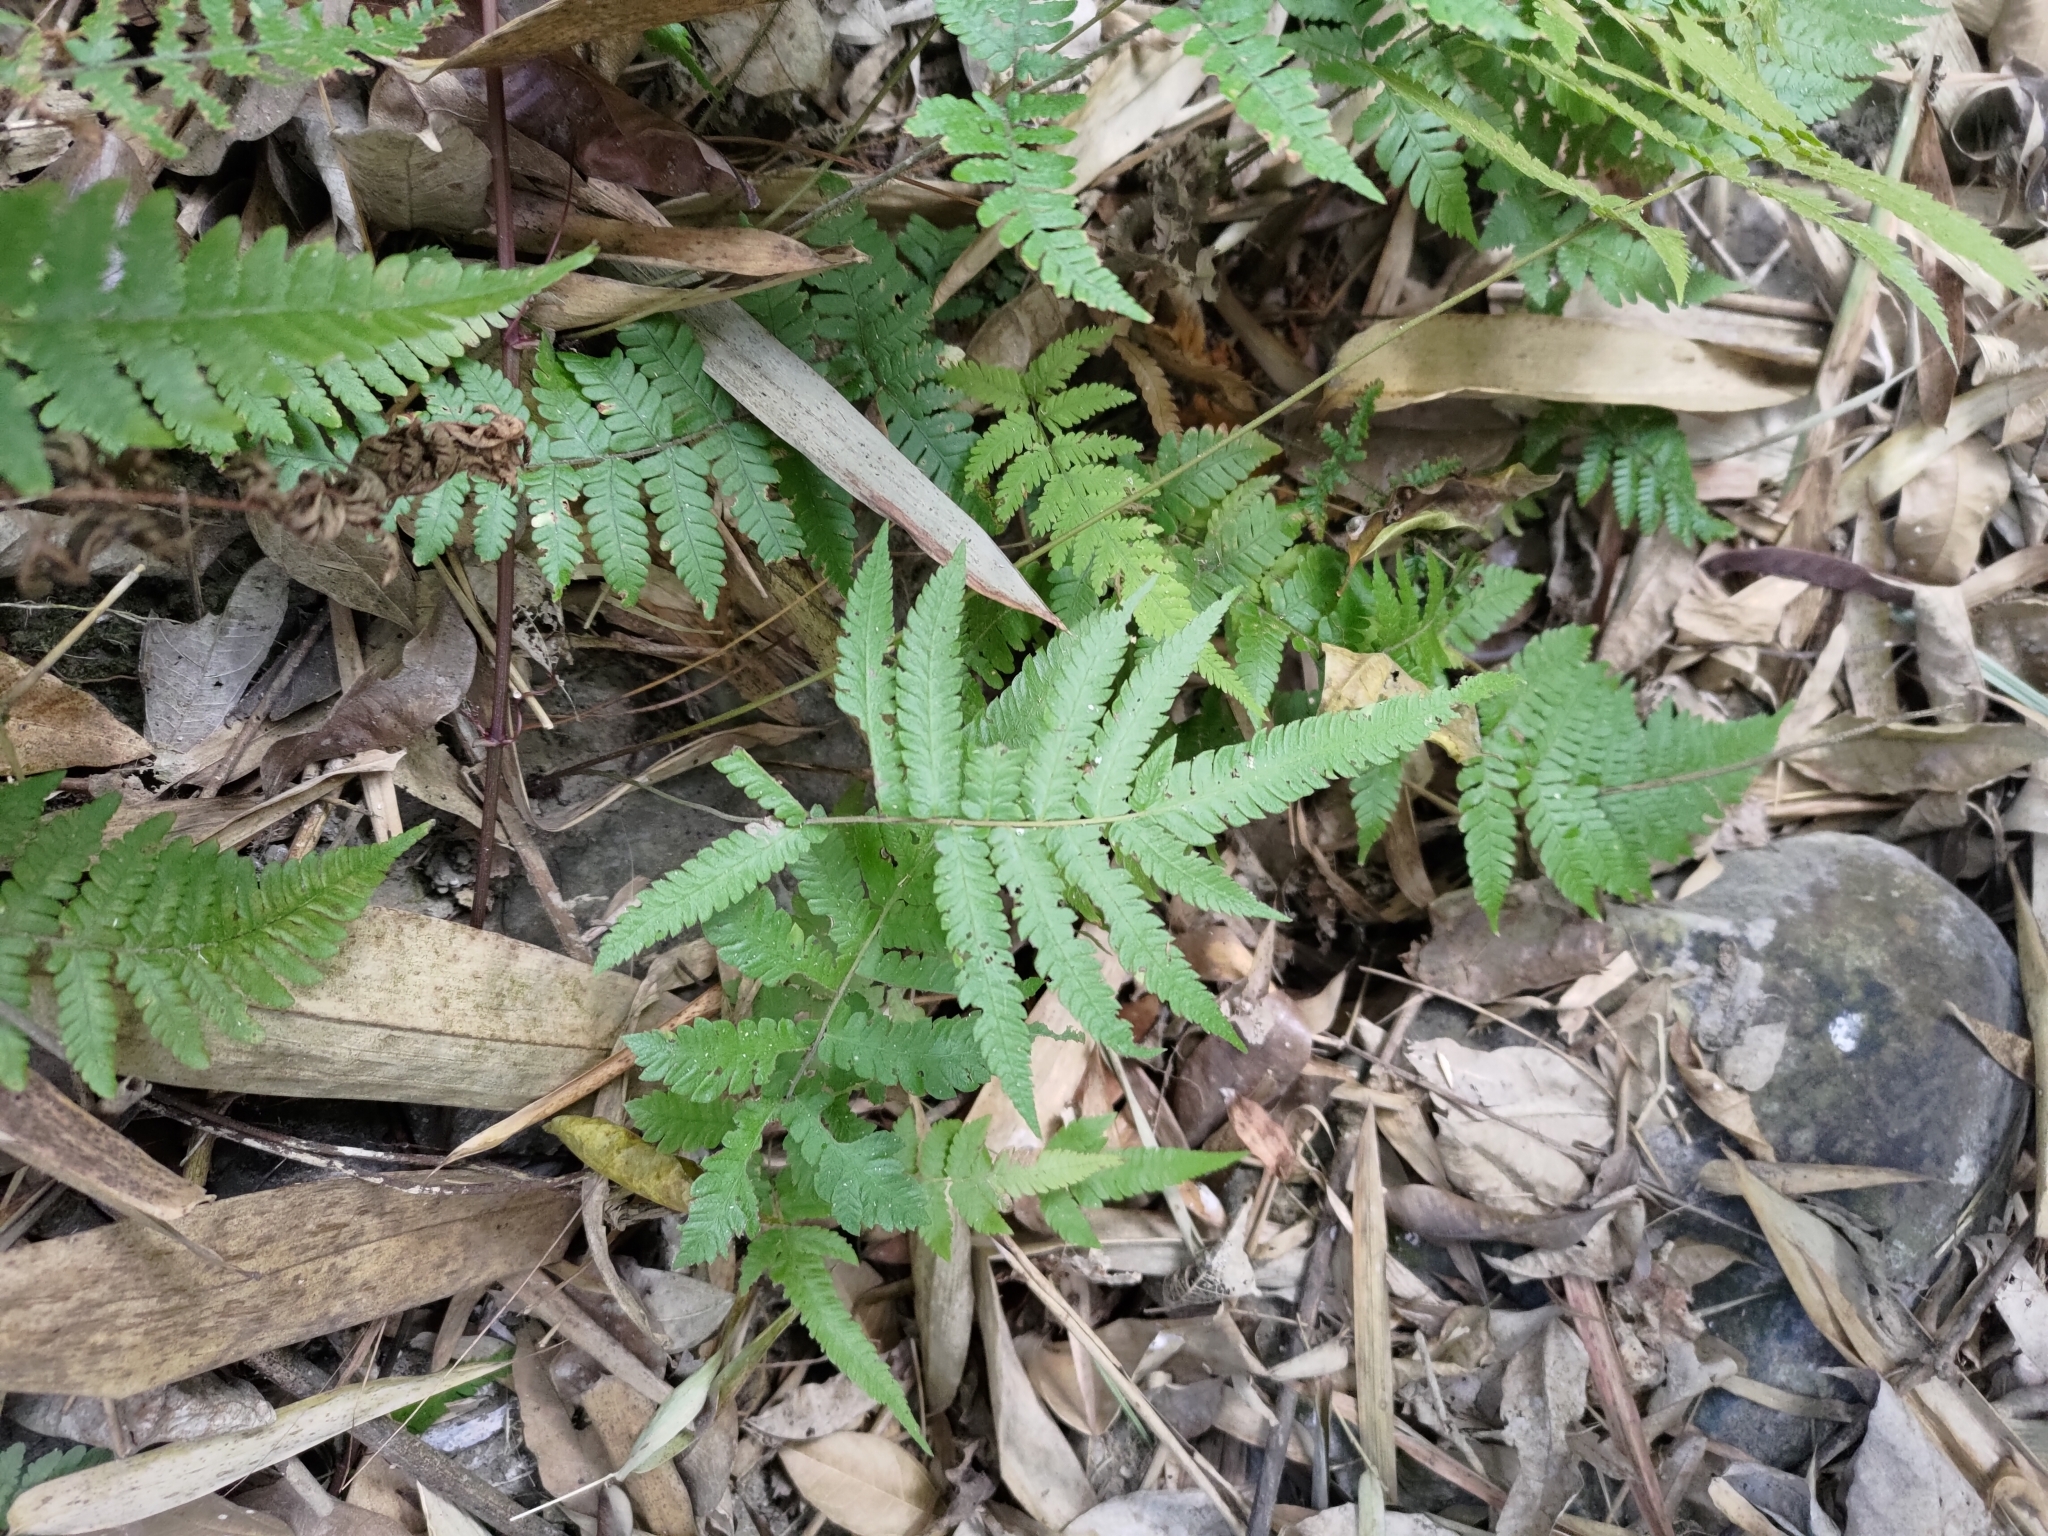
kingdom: Plantae
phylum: Tracheophyta
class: Polypodiopsida
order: Polypodiales
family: Thelypteridaceae
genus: Christella
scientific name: Christella acuminata
